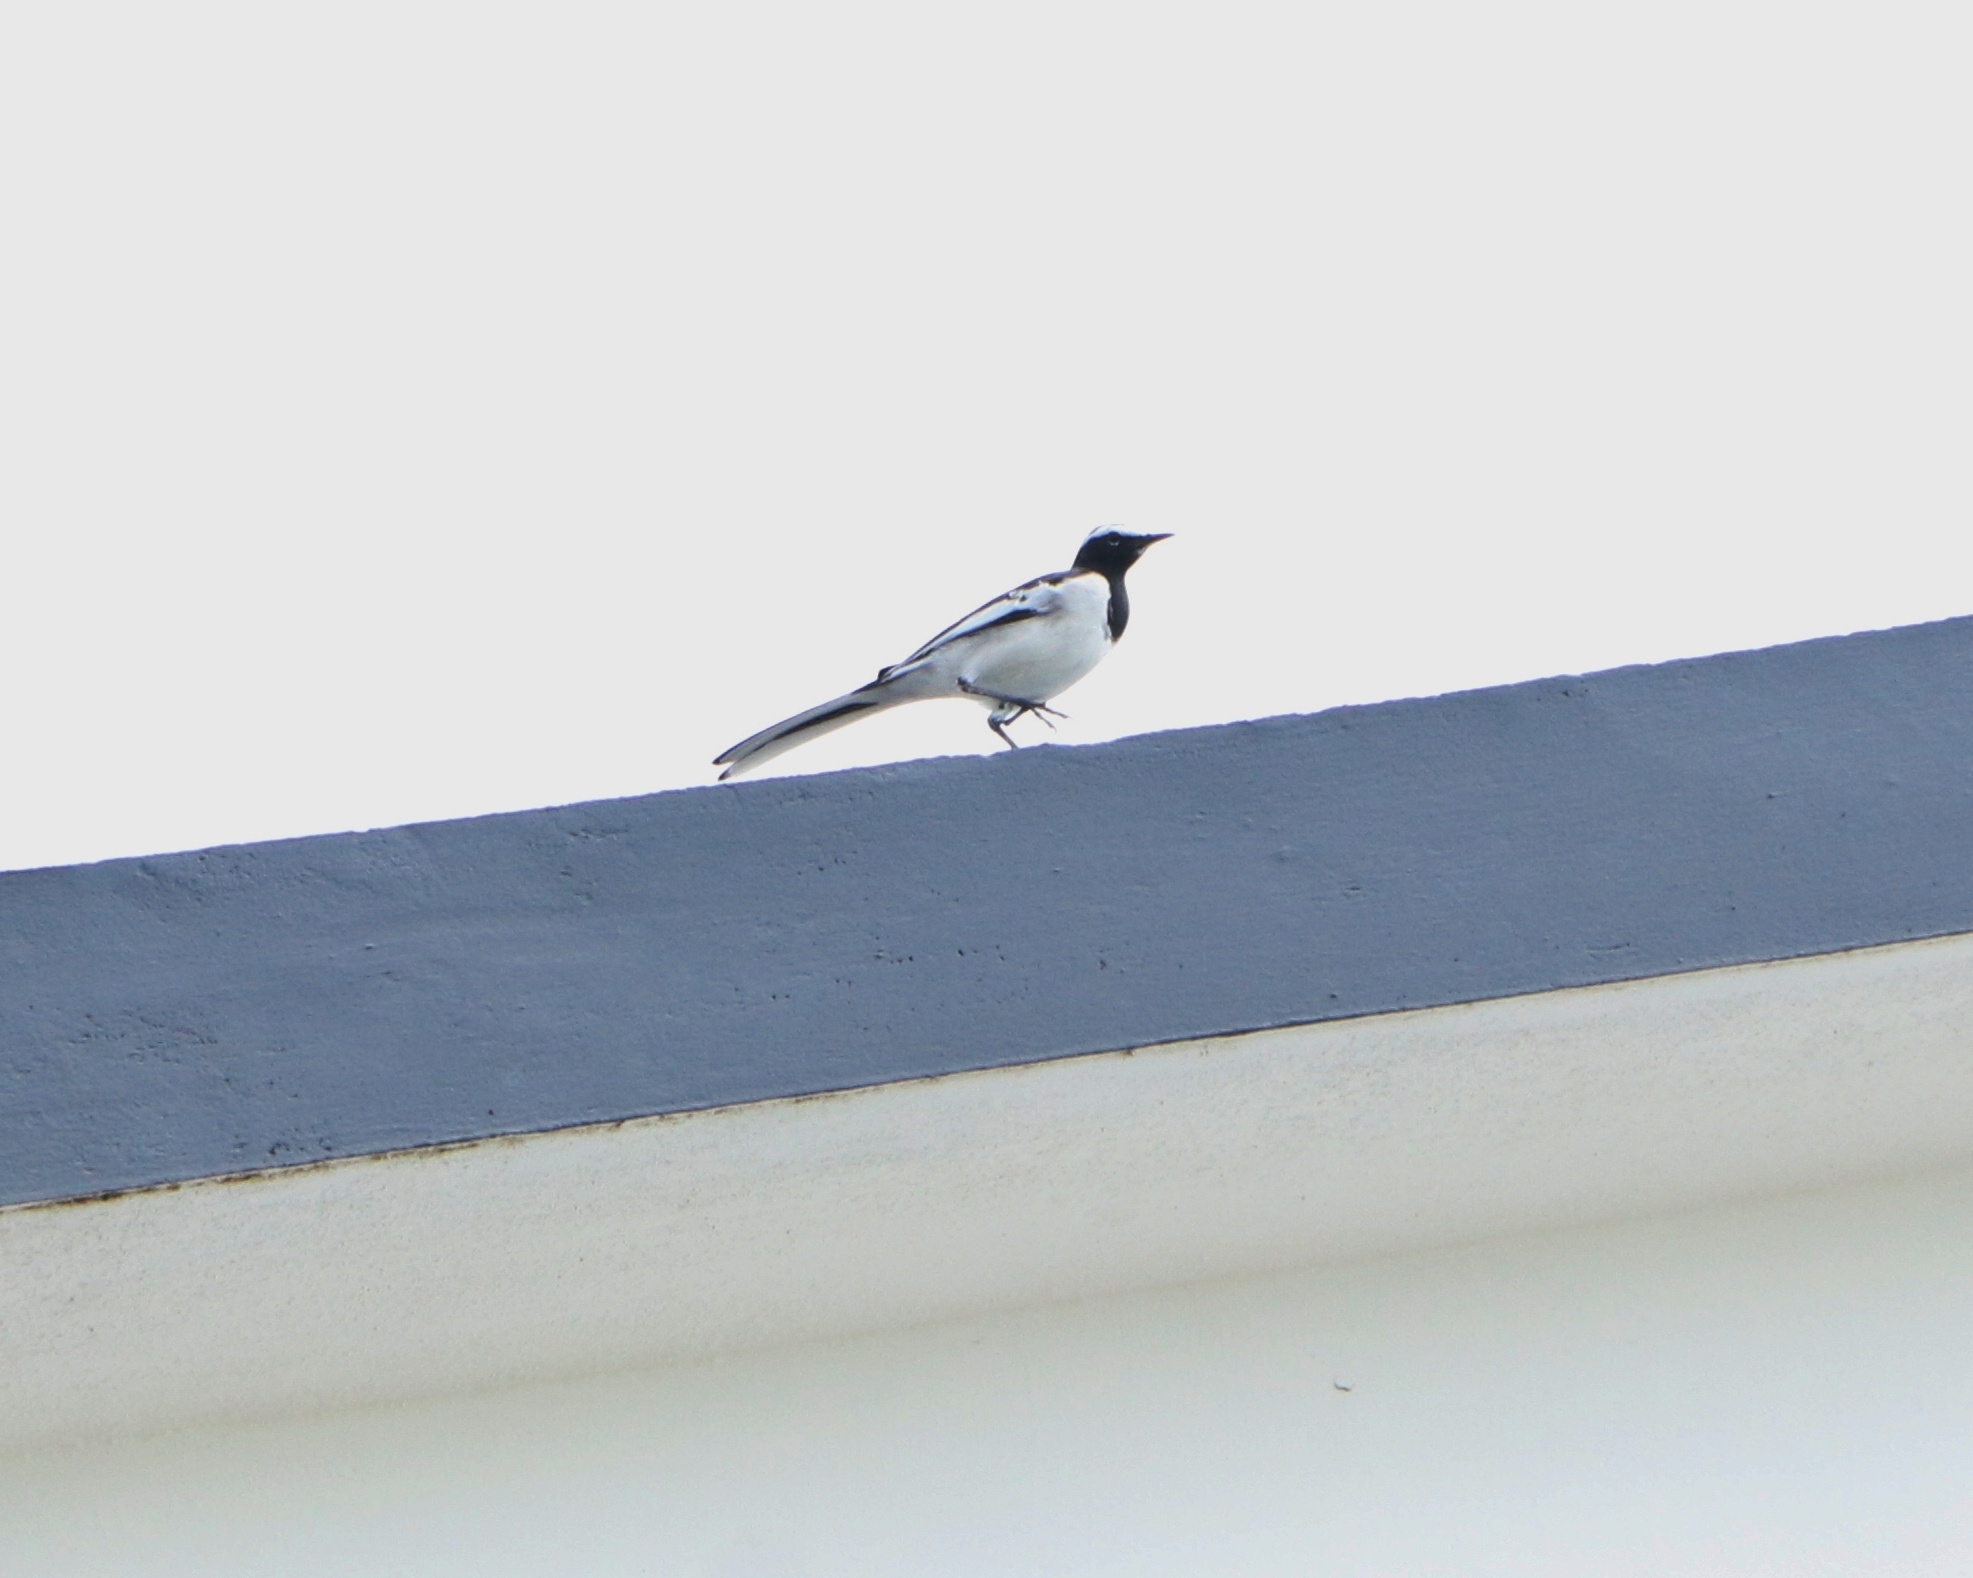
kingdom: Animalia
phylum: Chordata
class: Aves
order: Passeriformes
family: Motacillidae
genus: Motacilla
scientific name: Motacilla maderaspatensis
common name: White-browed wagtail
